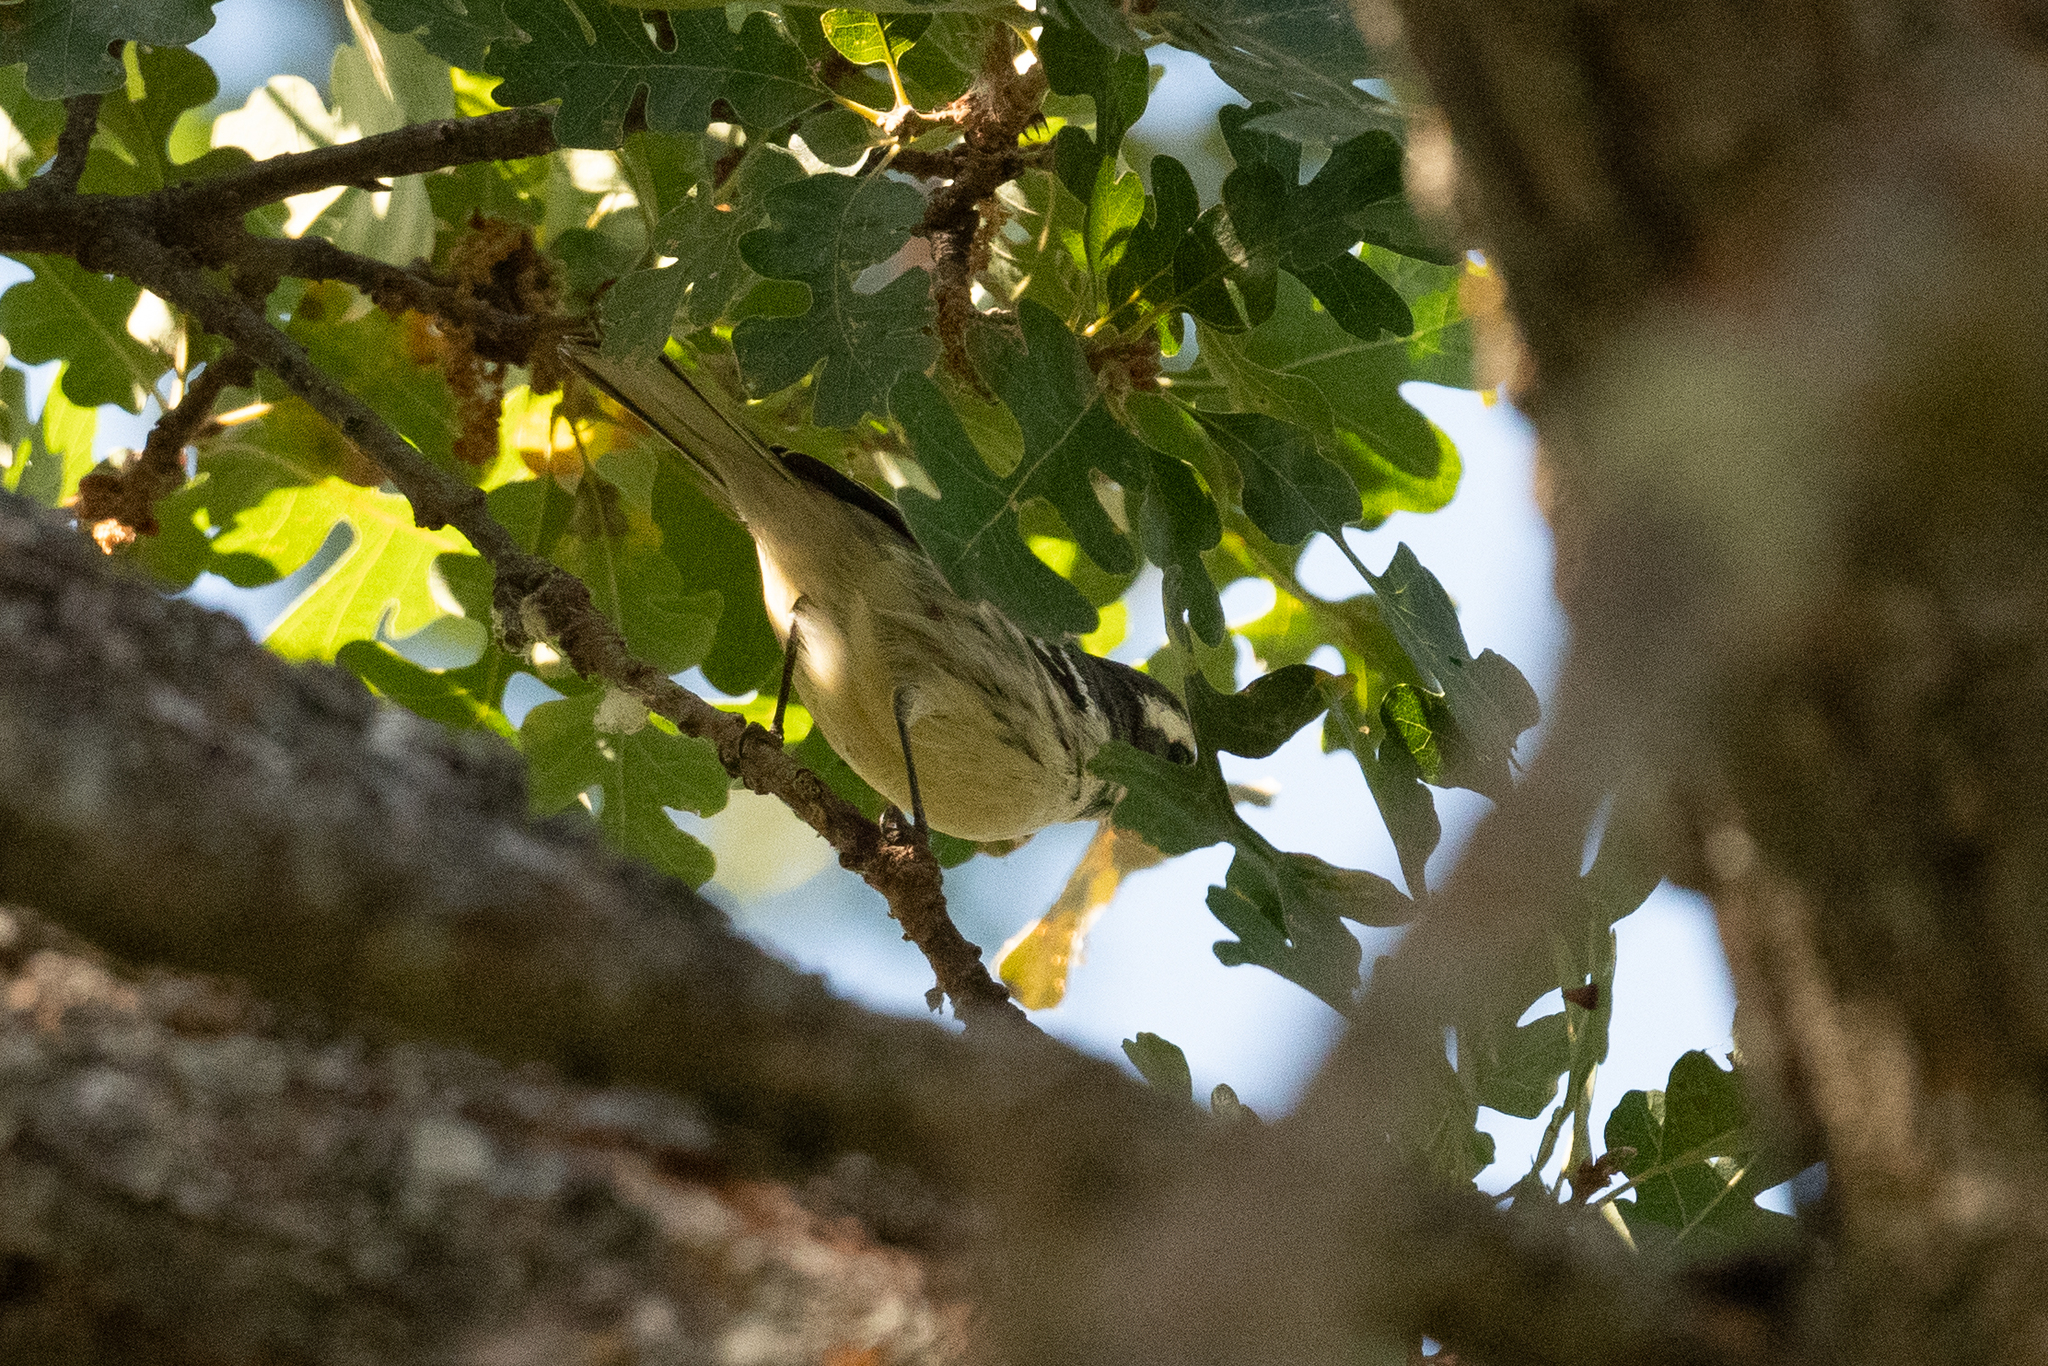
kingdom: Animalia
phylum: Chordata
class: Aves
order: Passeriformes
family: Parulidae
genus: Setophaga
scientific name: Setophaga nigrescens
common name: Black-throated gray warbler
